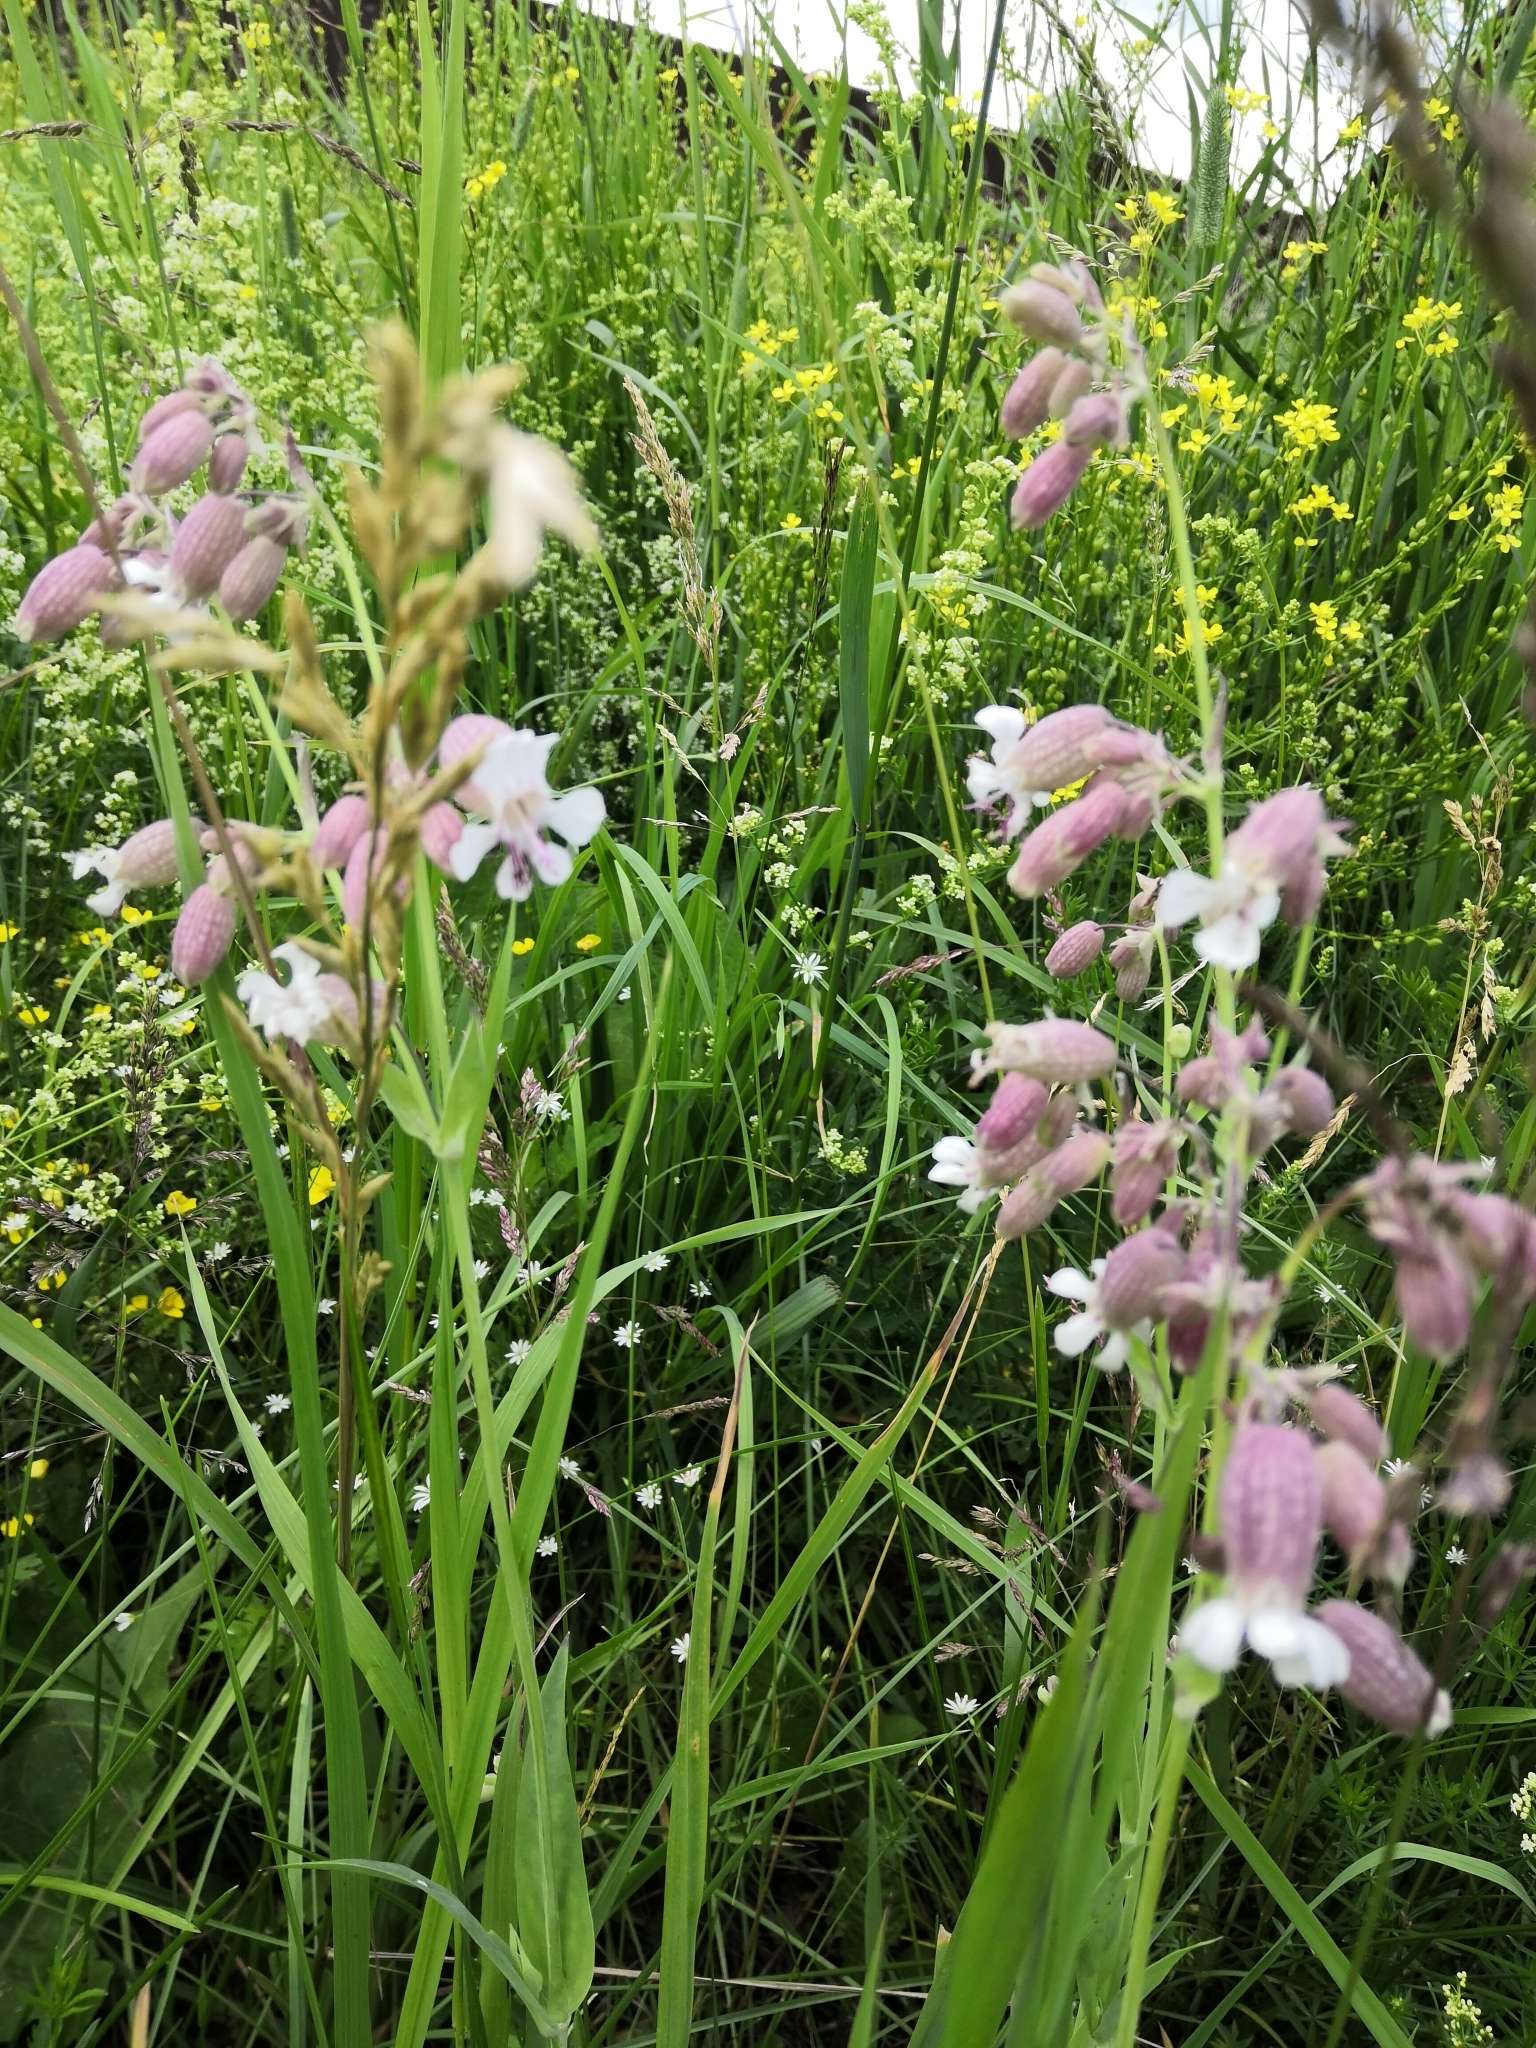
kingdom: Plantae
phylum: Tracheophyta
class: Magnoliopsida
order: Caryophyllales
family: Caryophyllaceae
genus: Silene
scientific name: Silene vulgaris
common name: Bladder campion
